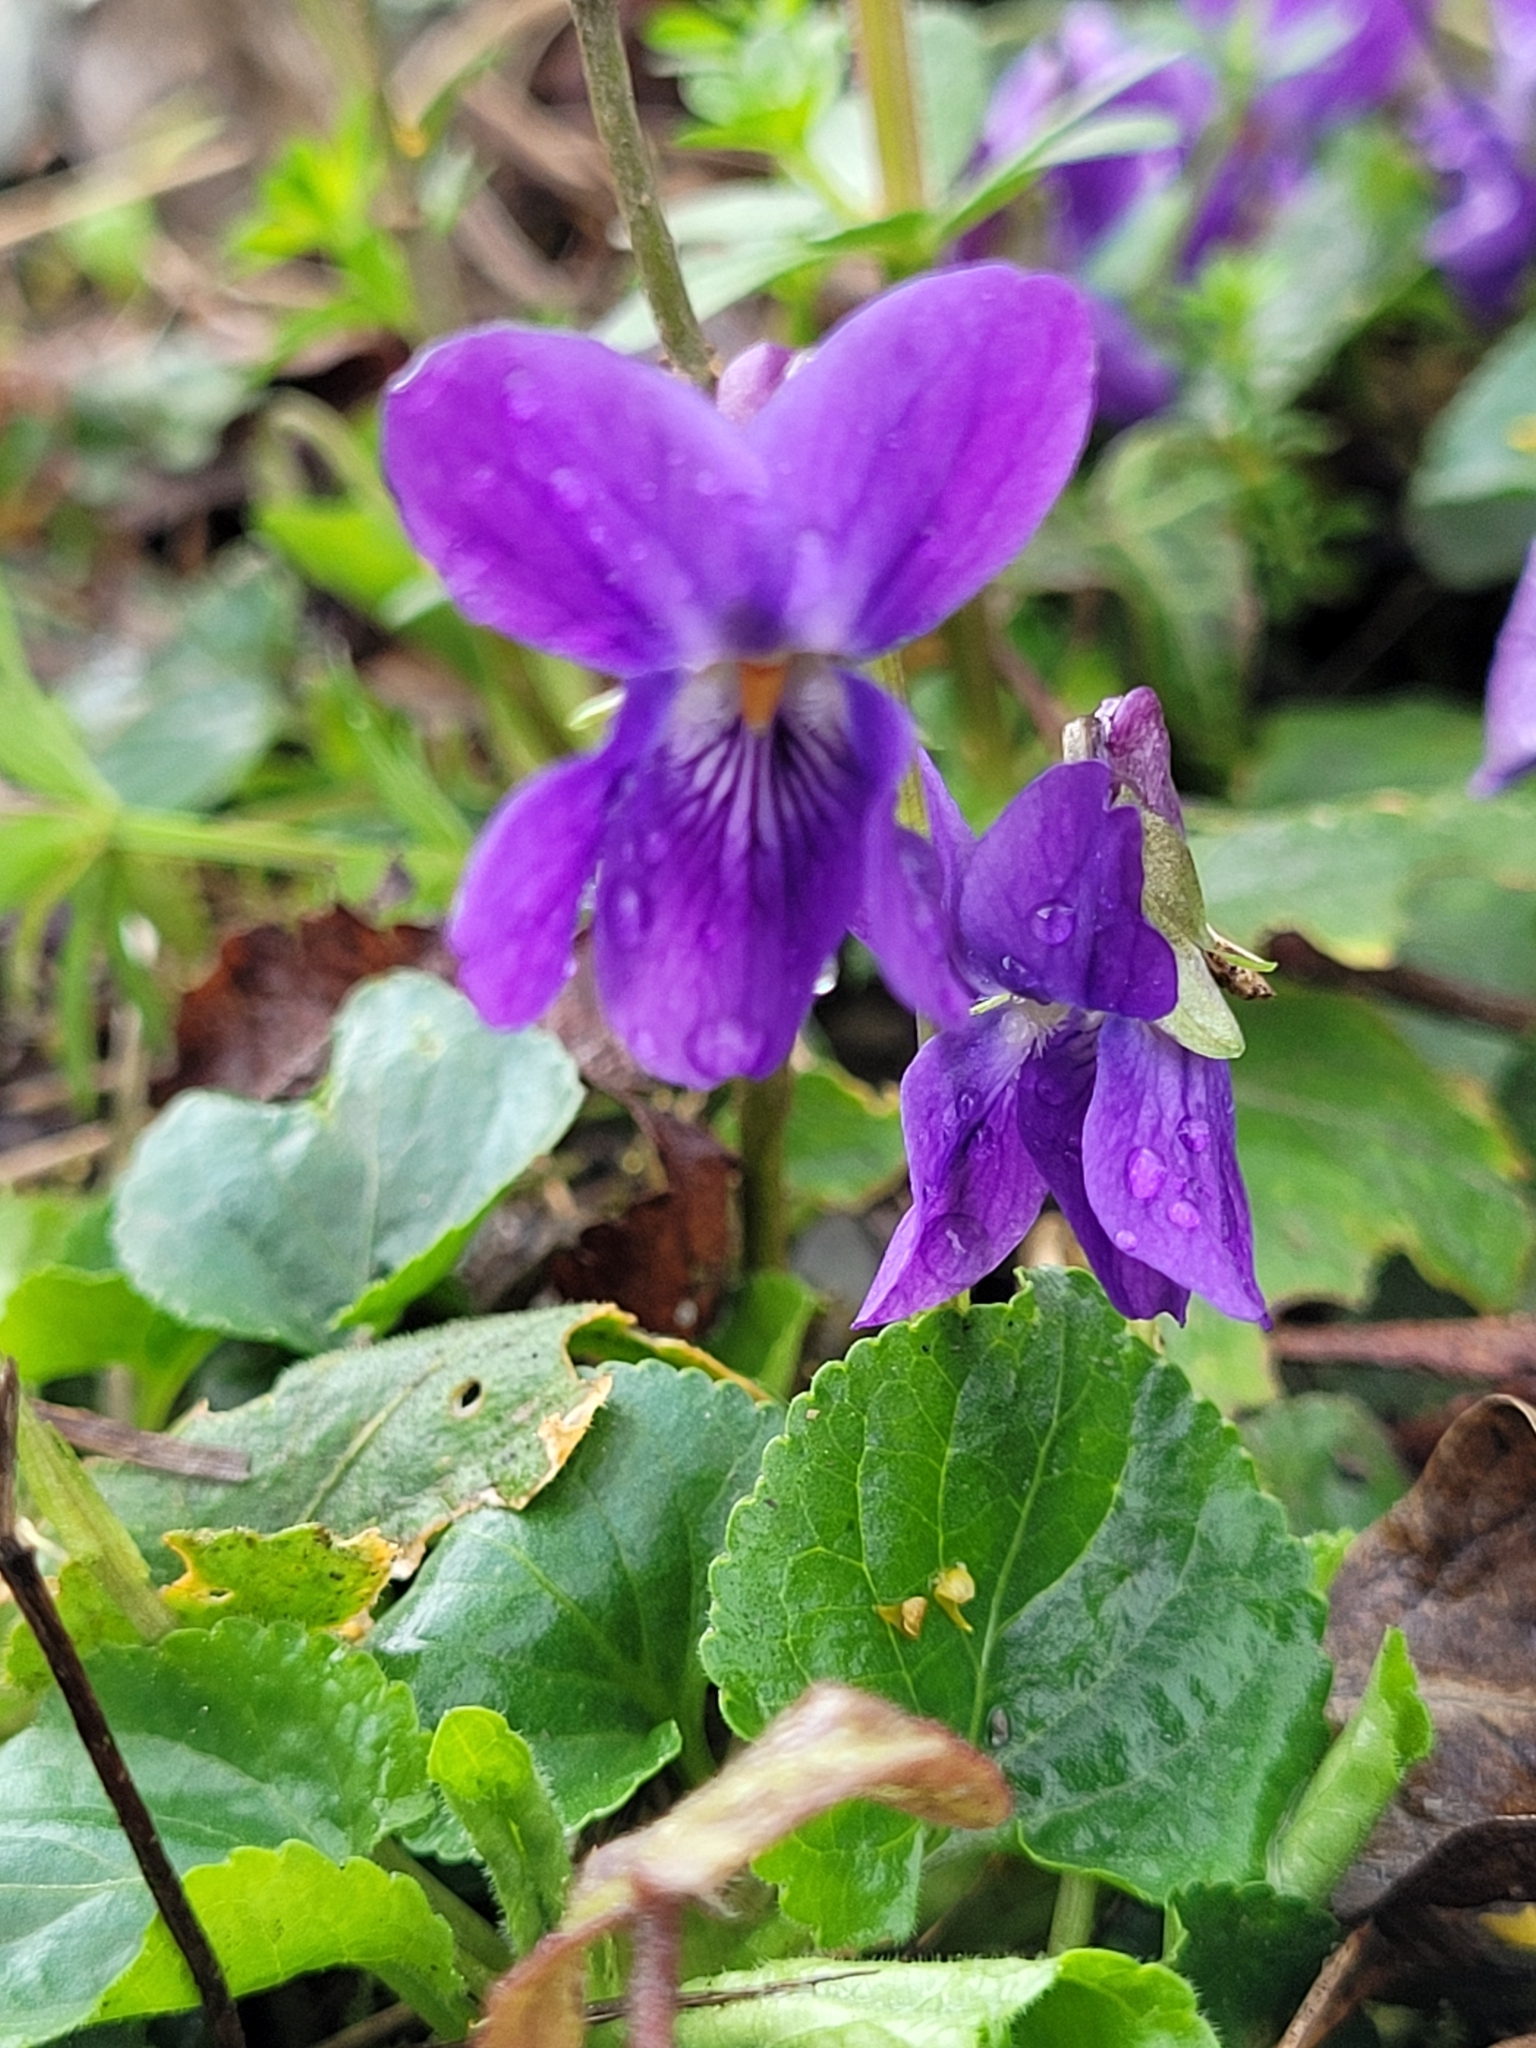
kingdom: Plantae
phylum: Tracheophyta
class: Magnoliopsida
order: Malpighiales
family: Violaceae
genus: Viola
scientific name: Viola odorata
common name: Sweet violet
